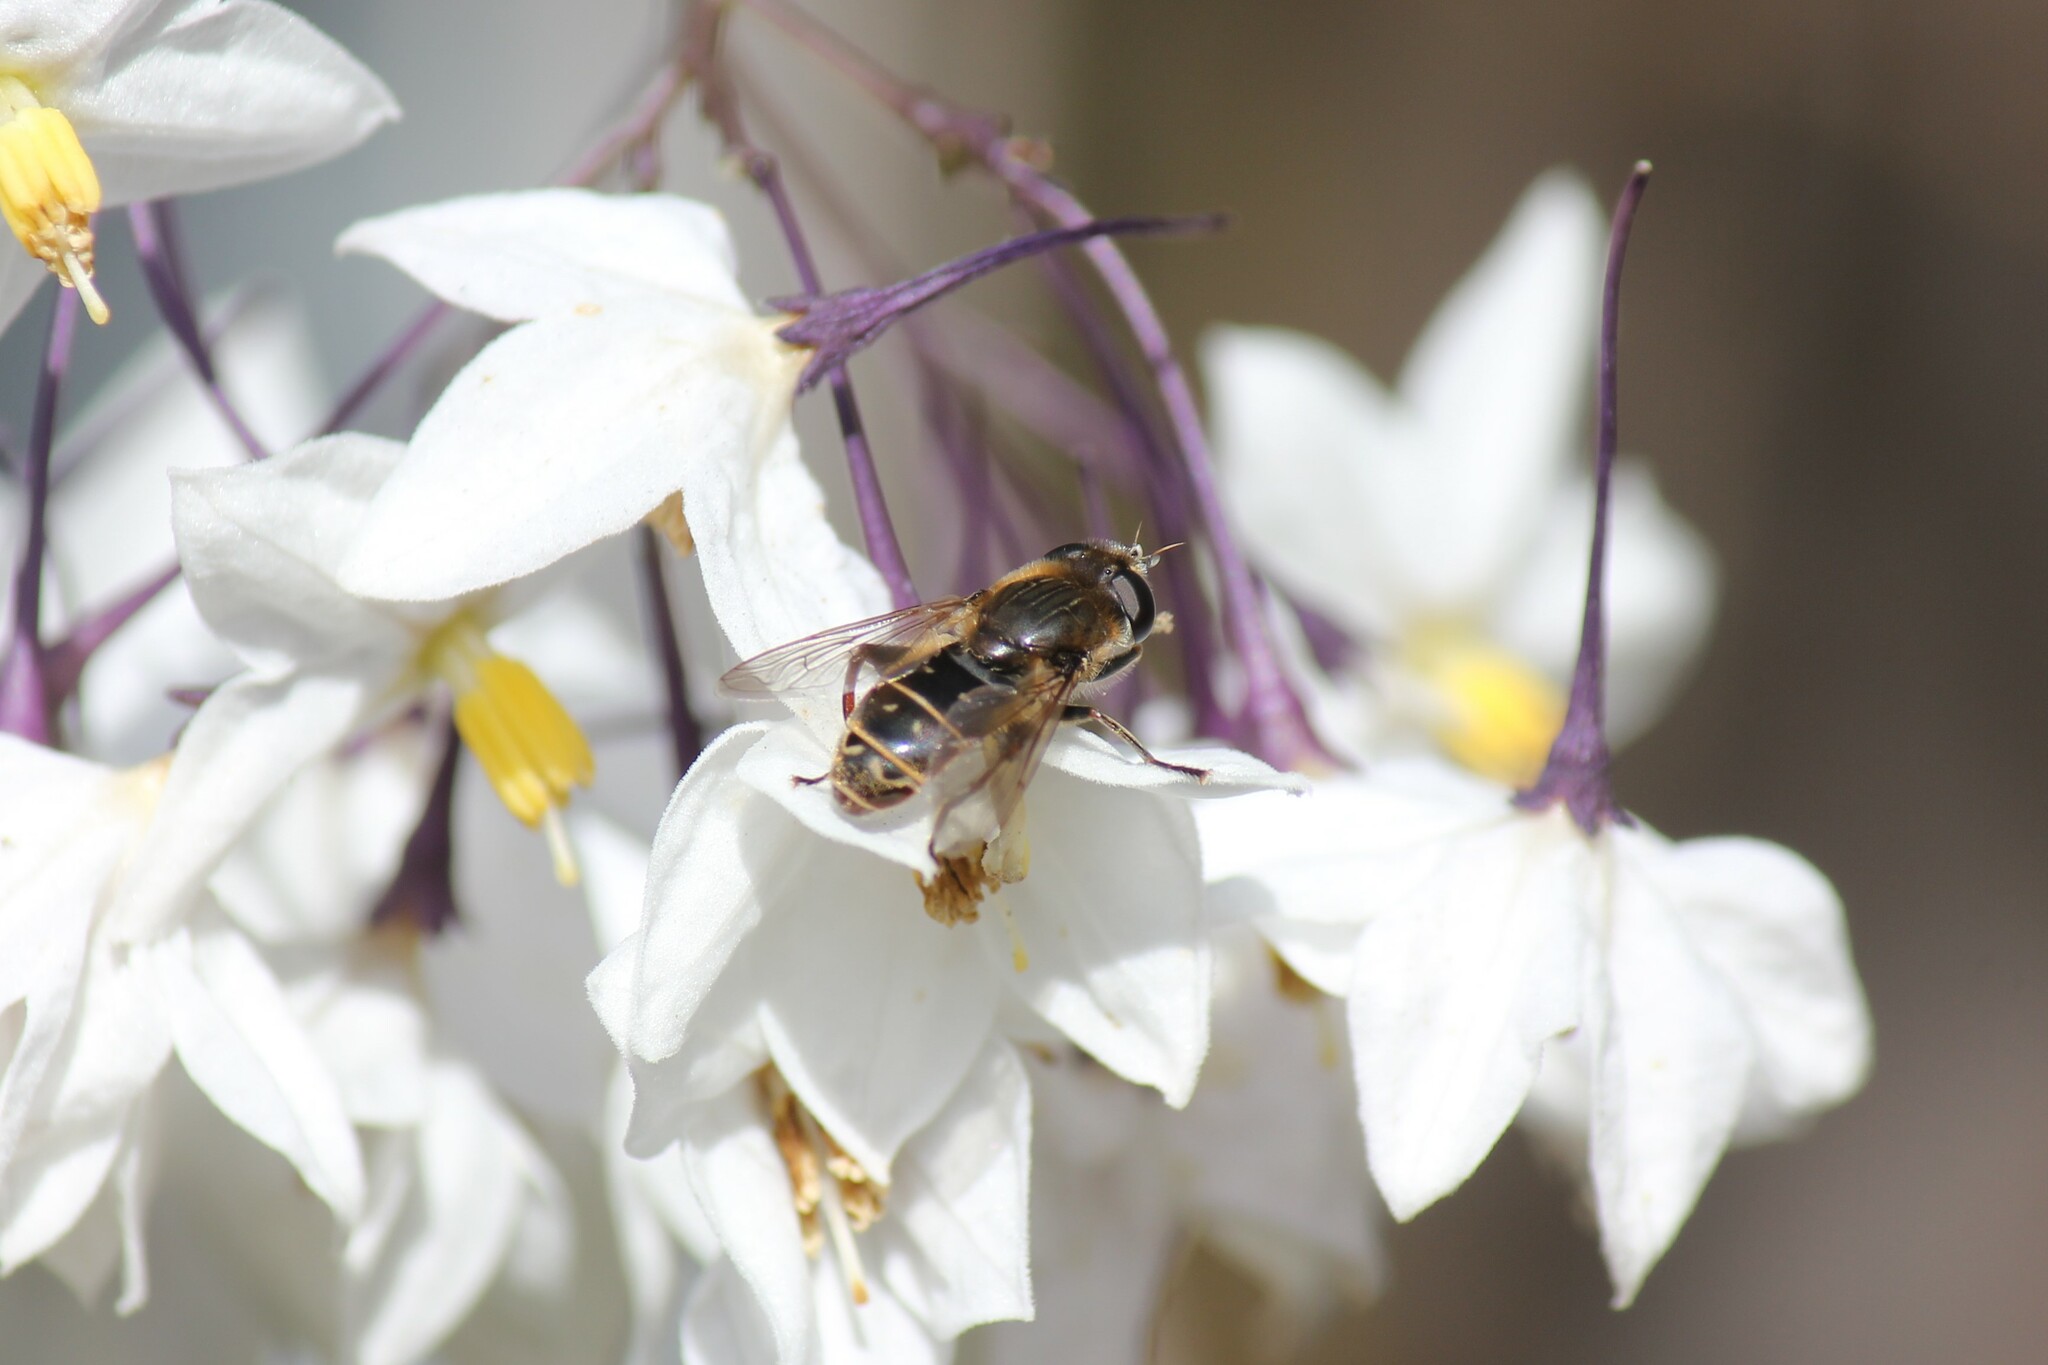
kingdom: Animalia
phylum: Arthropoda
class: Insecta
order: Diptera
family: Syrphidae
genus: Asemosyrphus
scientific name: Asemosyrphus polygrammus
